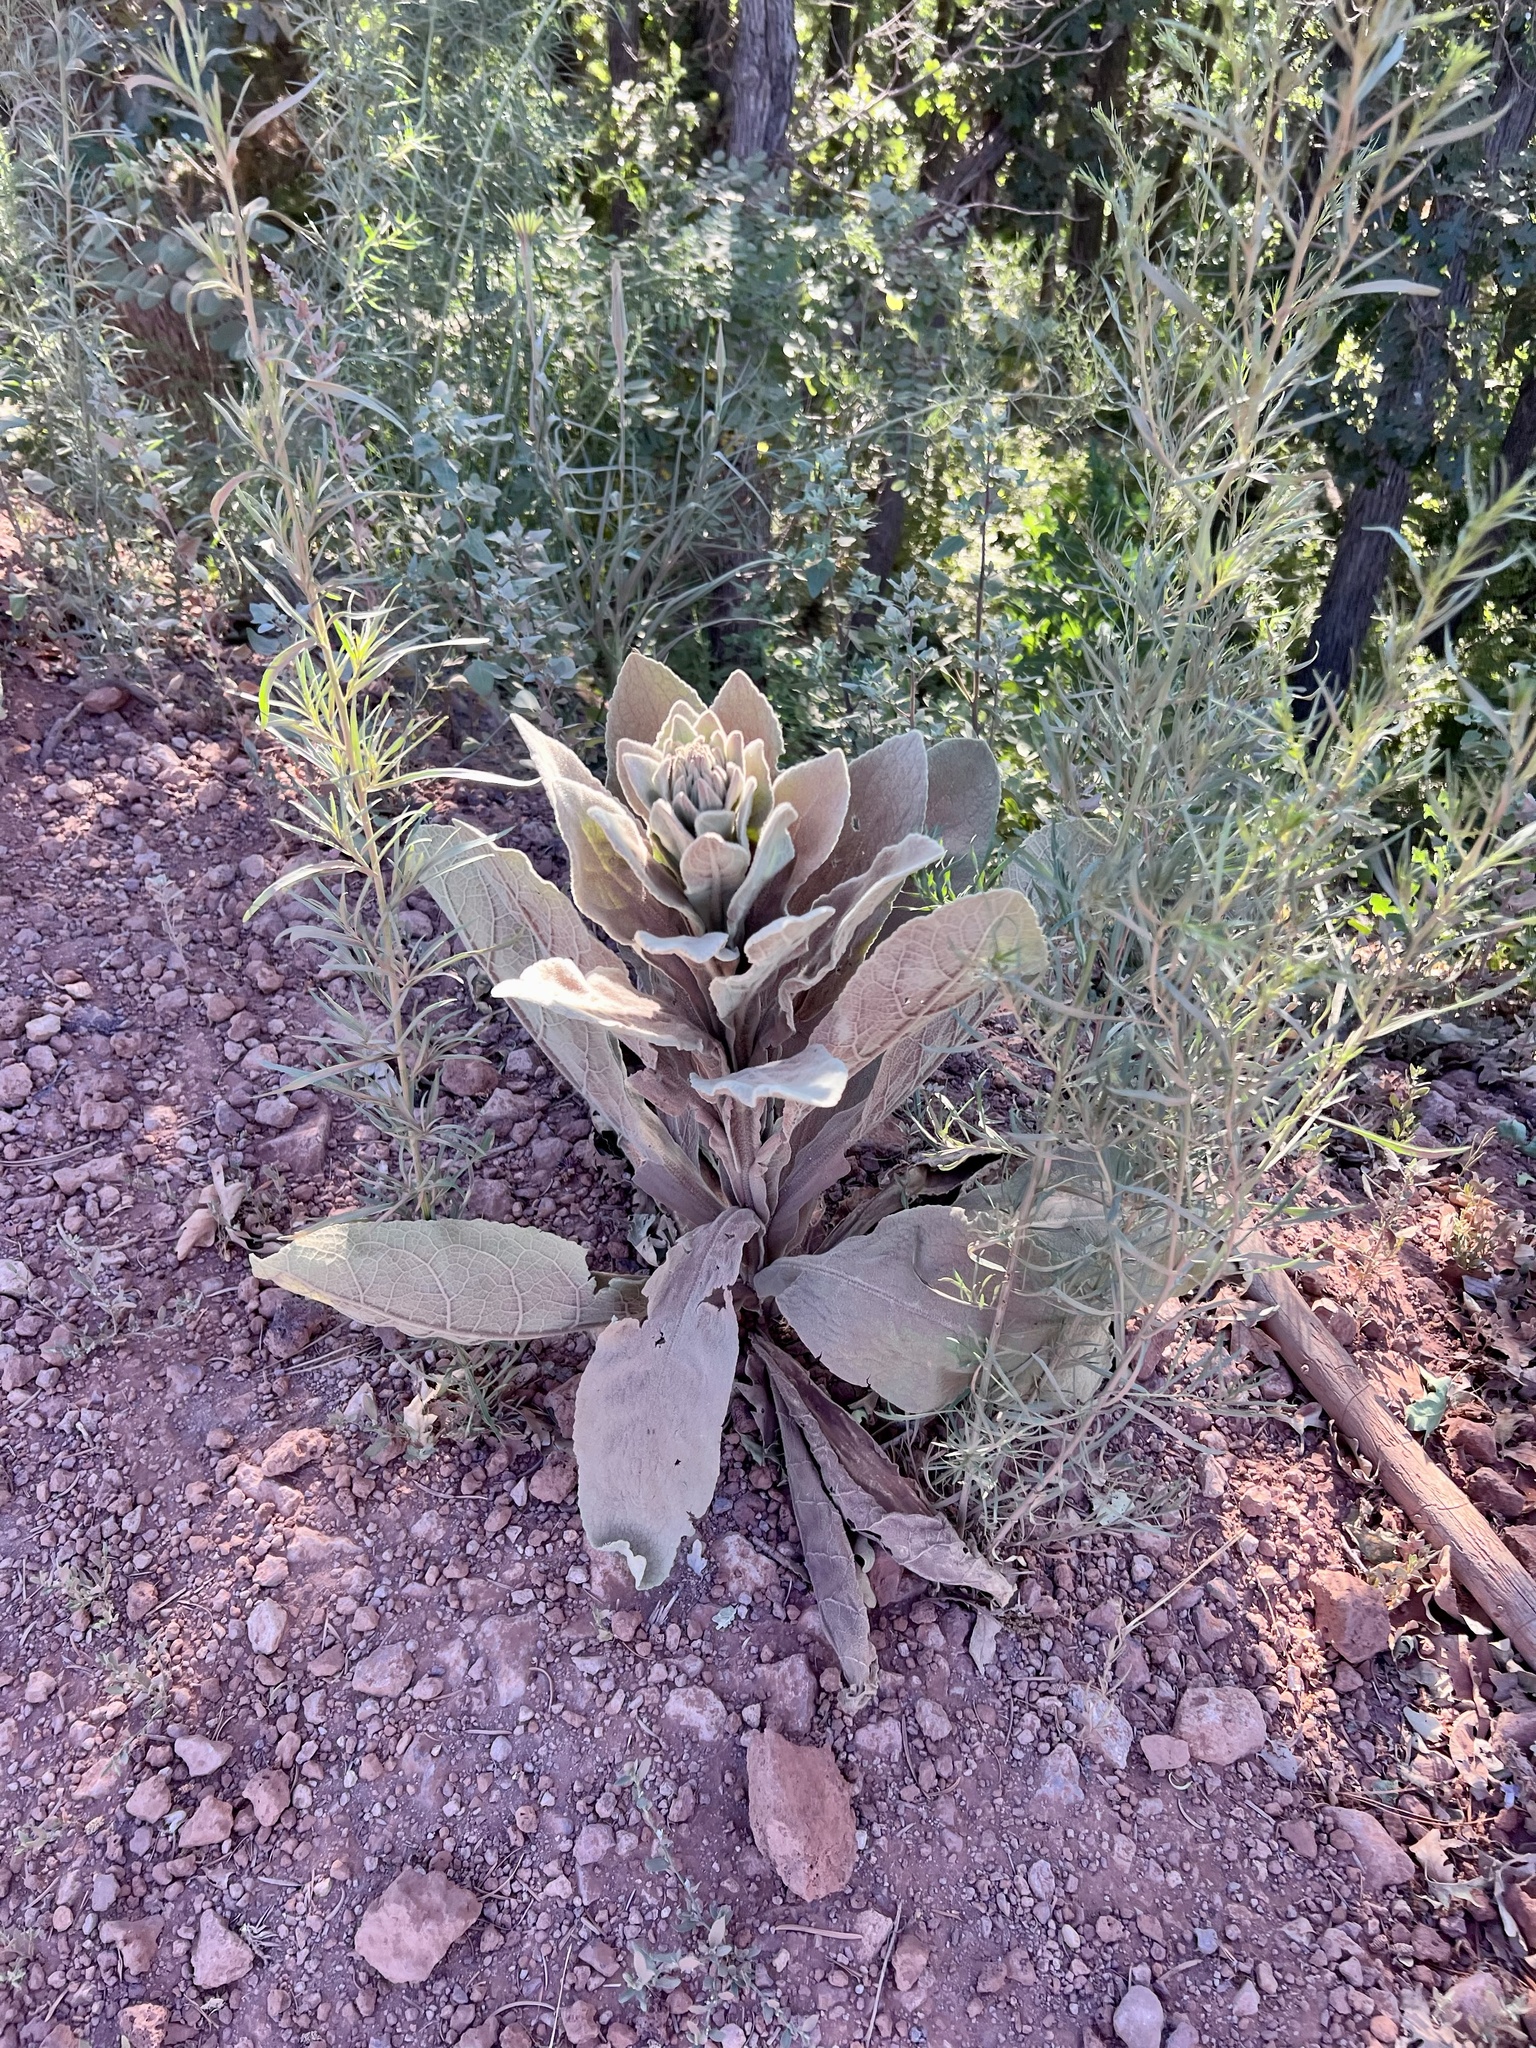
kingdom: Plantae
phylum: Tracheophyta
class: Magnoliopsida
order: Lamiales
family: Scrophulariaceae
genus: Verbascum
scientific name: Verbascum thapsus
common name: Common mullein
